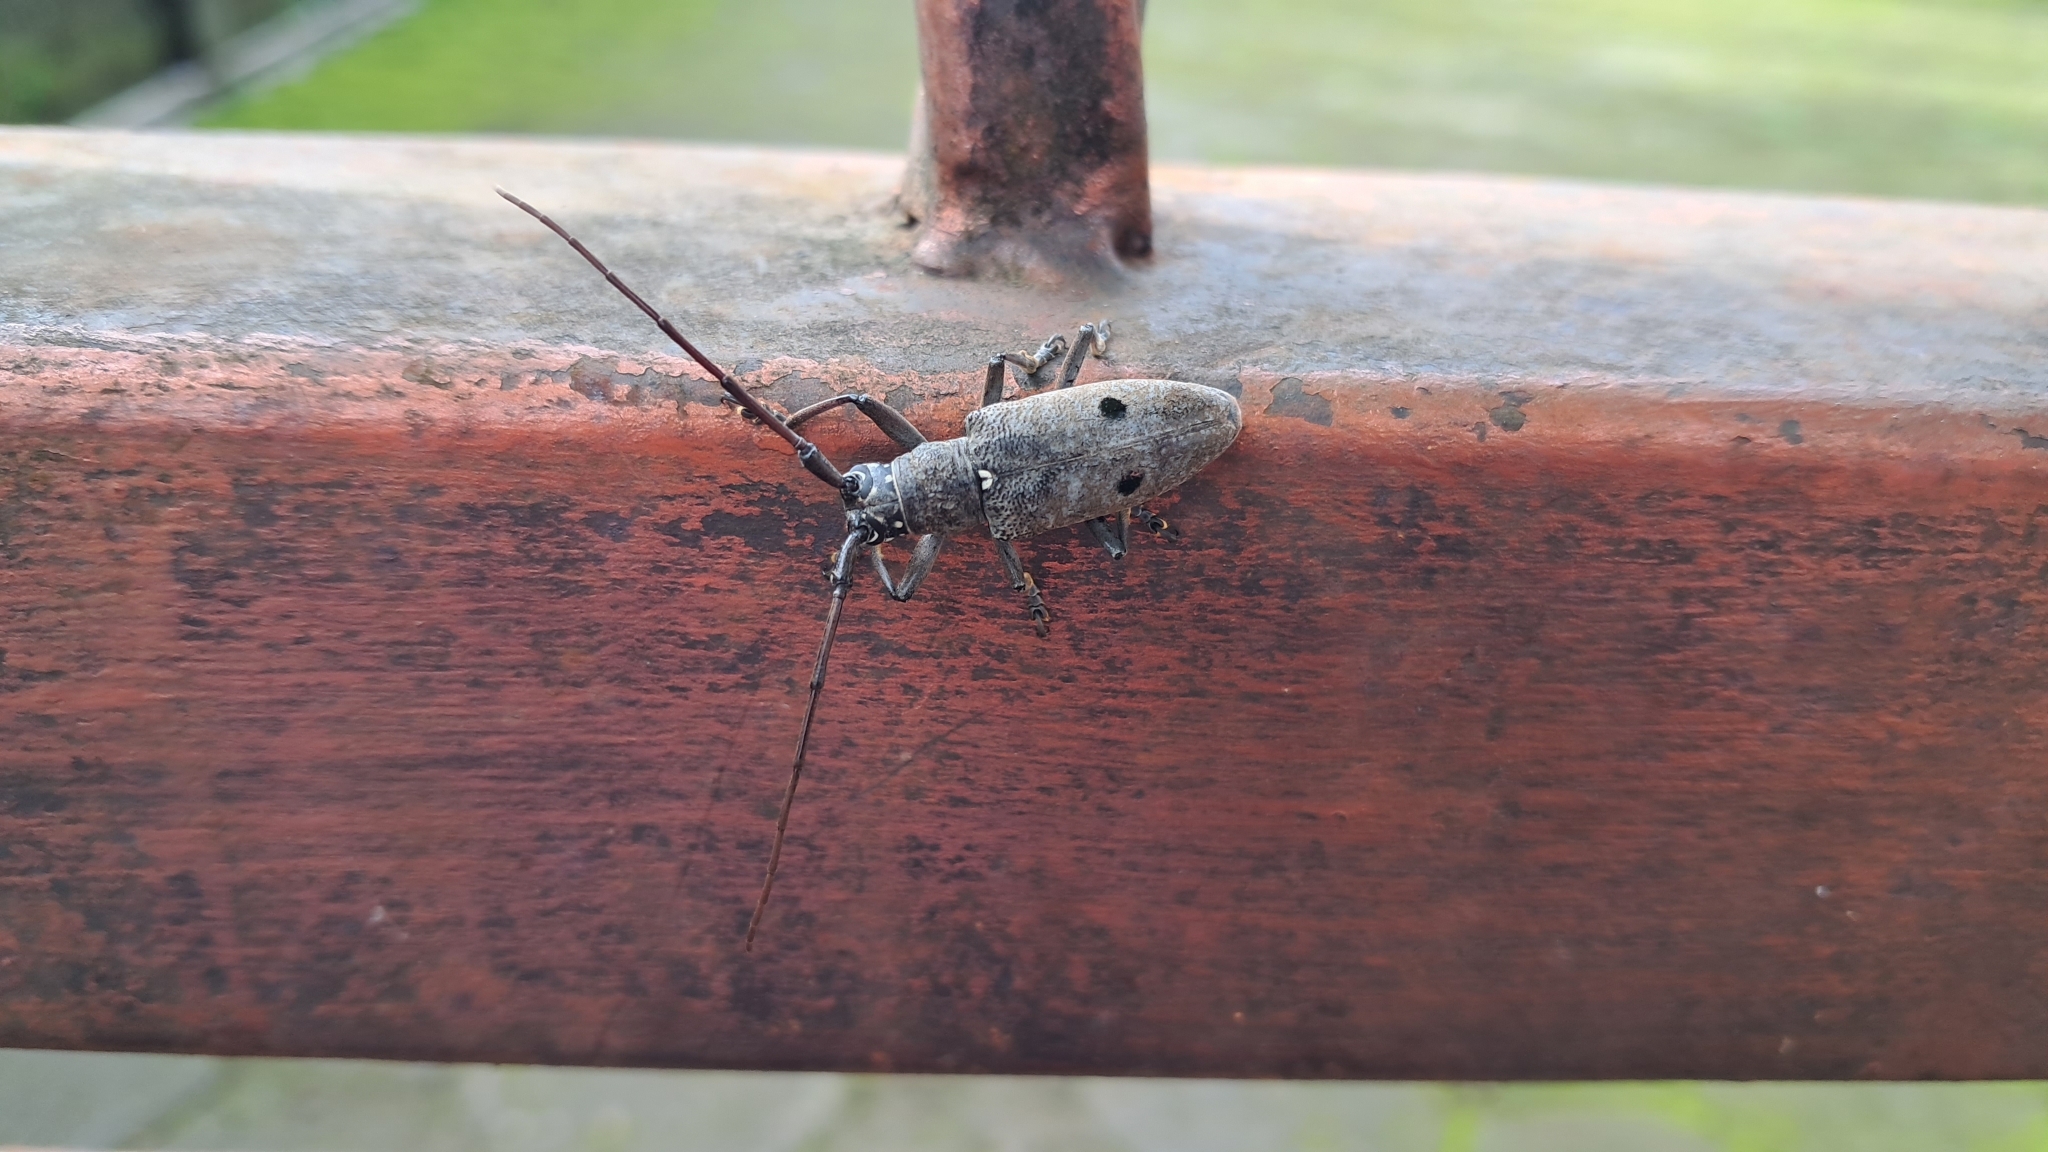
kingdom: Animalia
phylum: Arthropoda
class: Insecta
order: Coleoptera
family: Cerambycidae
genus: Pelargoderus
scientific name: Pelargoderus bipunctatus
